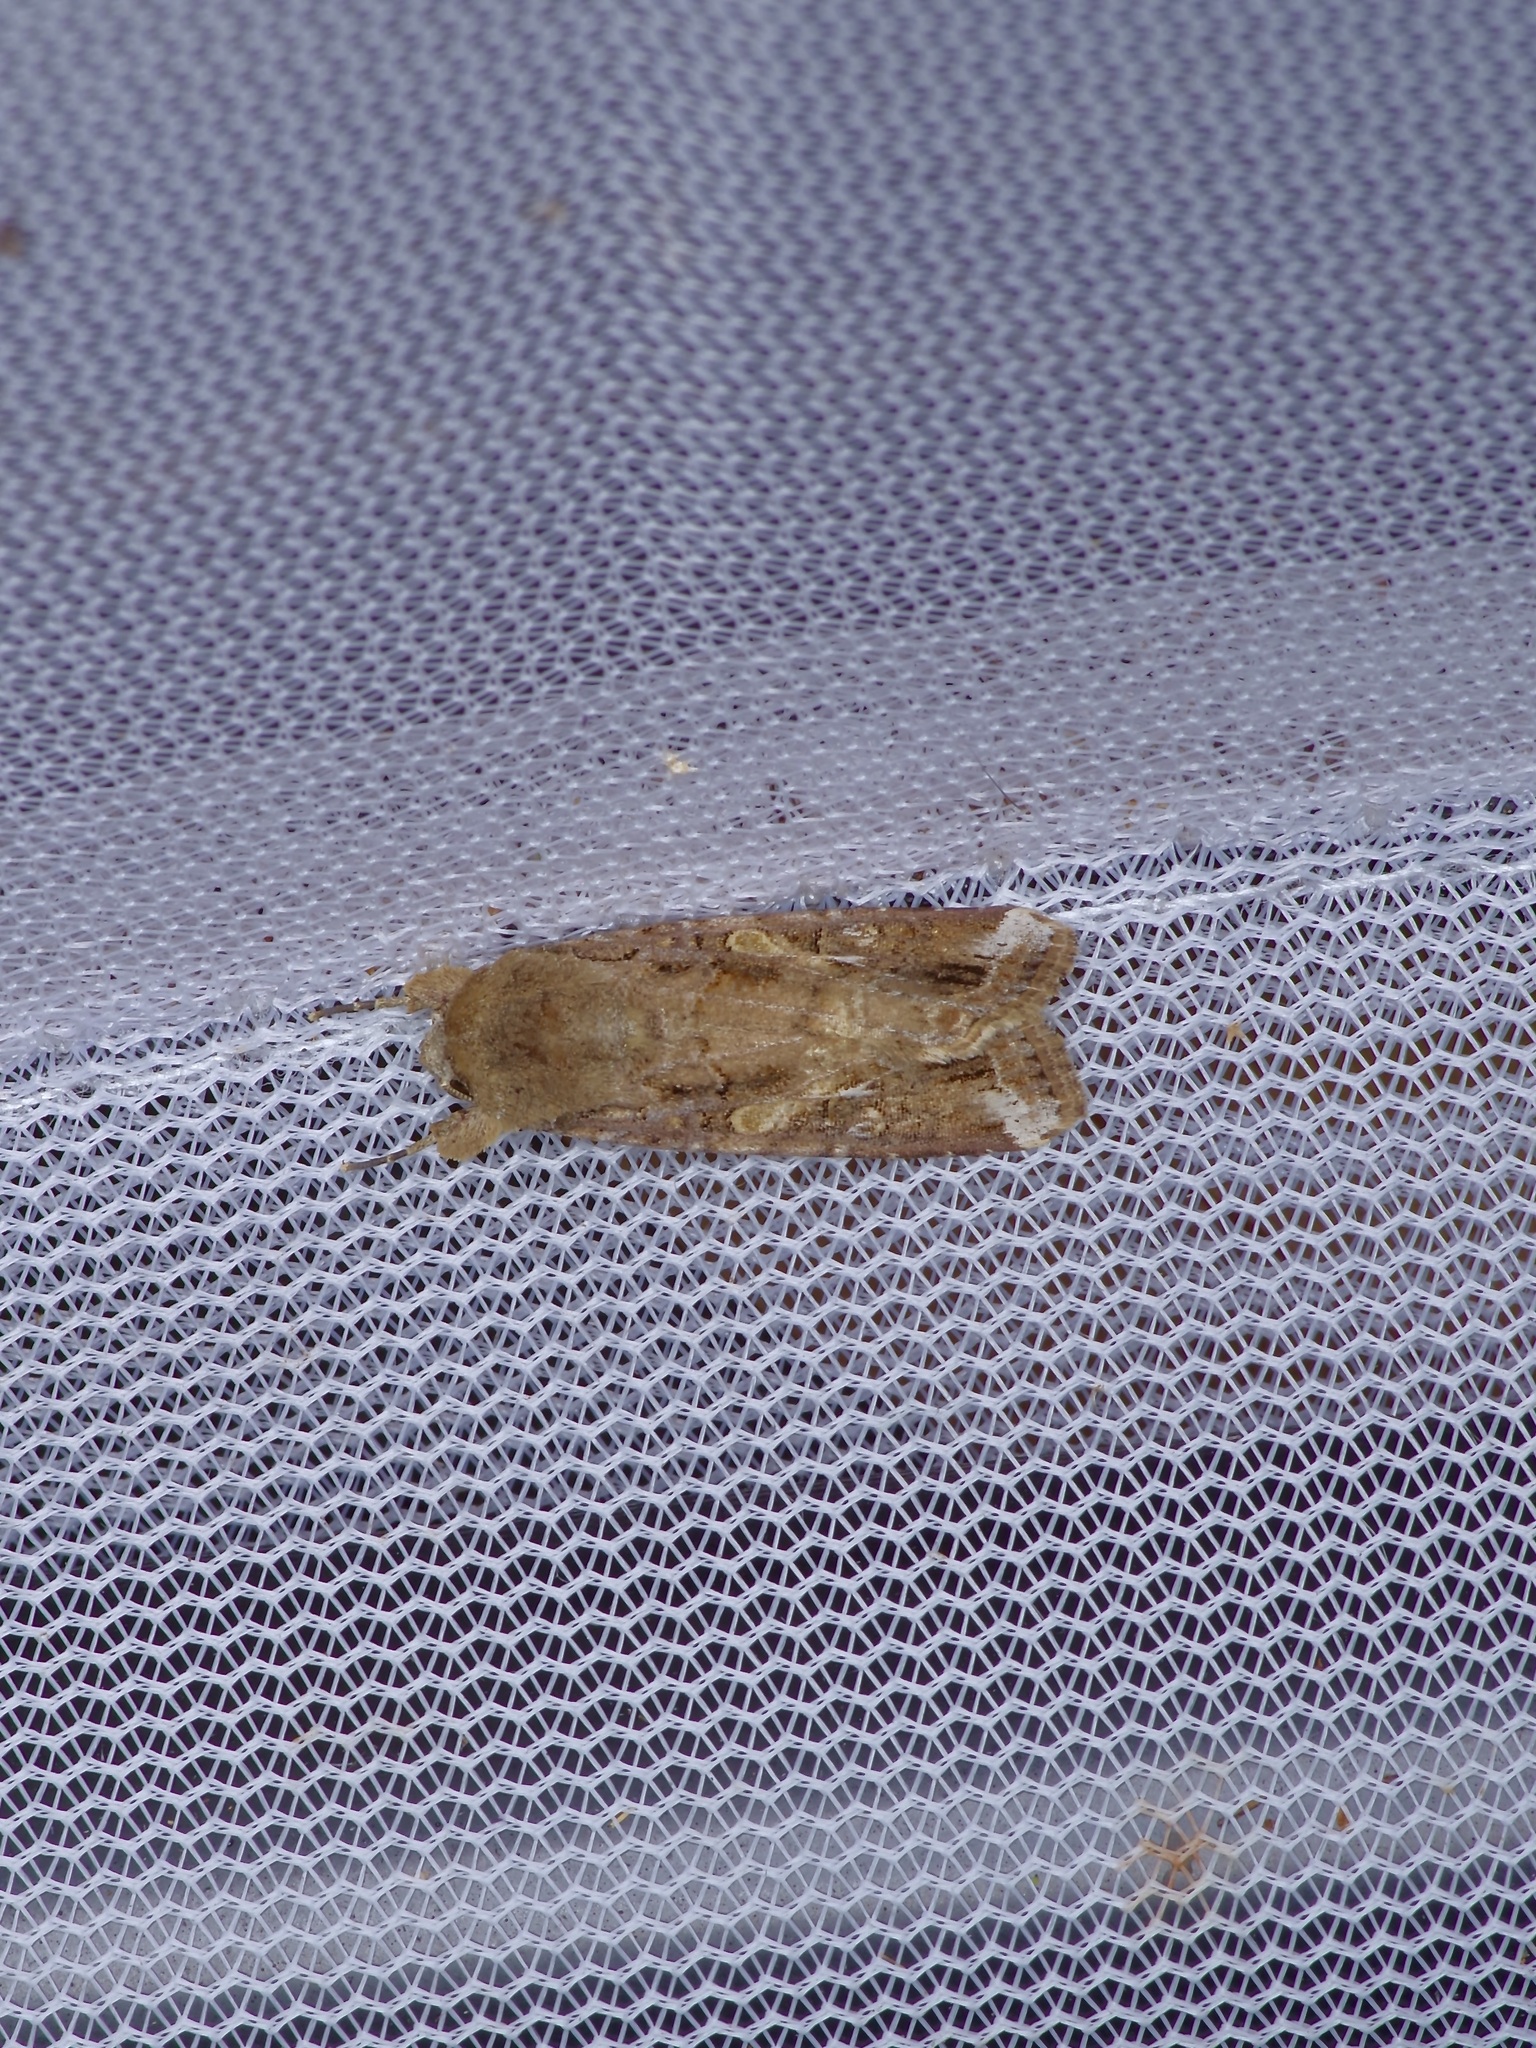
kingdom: Animalia
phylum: Arthropoda
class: Insecta
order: Lepidoptera
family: Noctuidae
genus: Spodoptera
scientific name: Spodoptera frugiperda
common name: Fall armyworm
